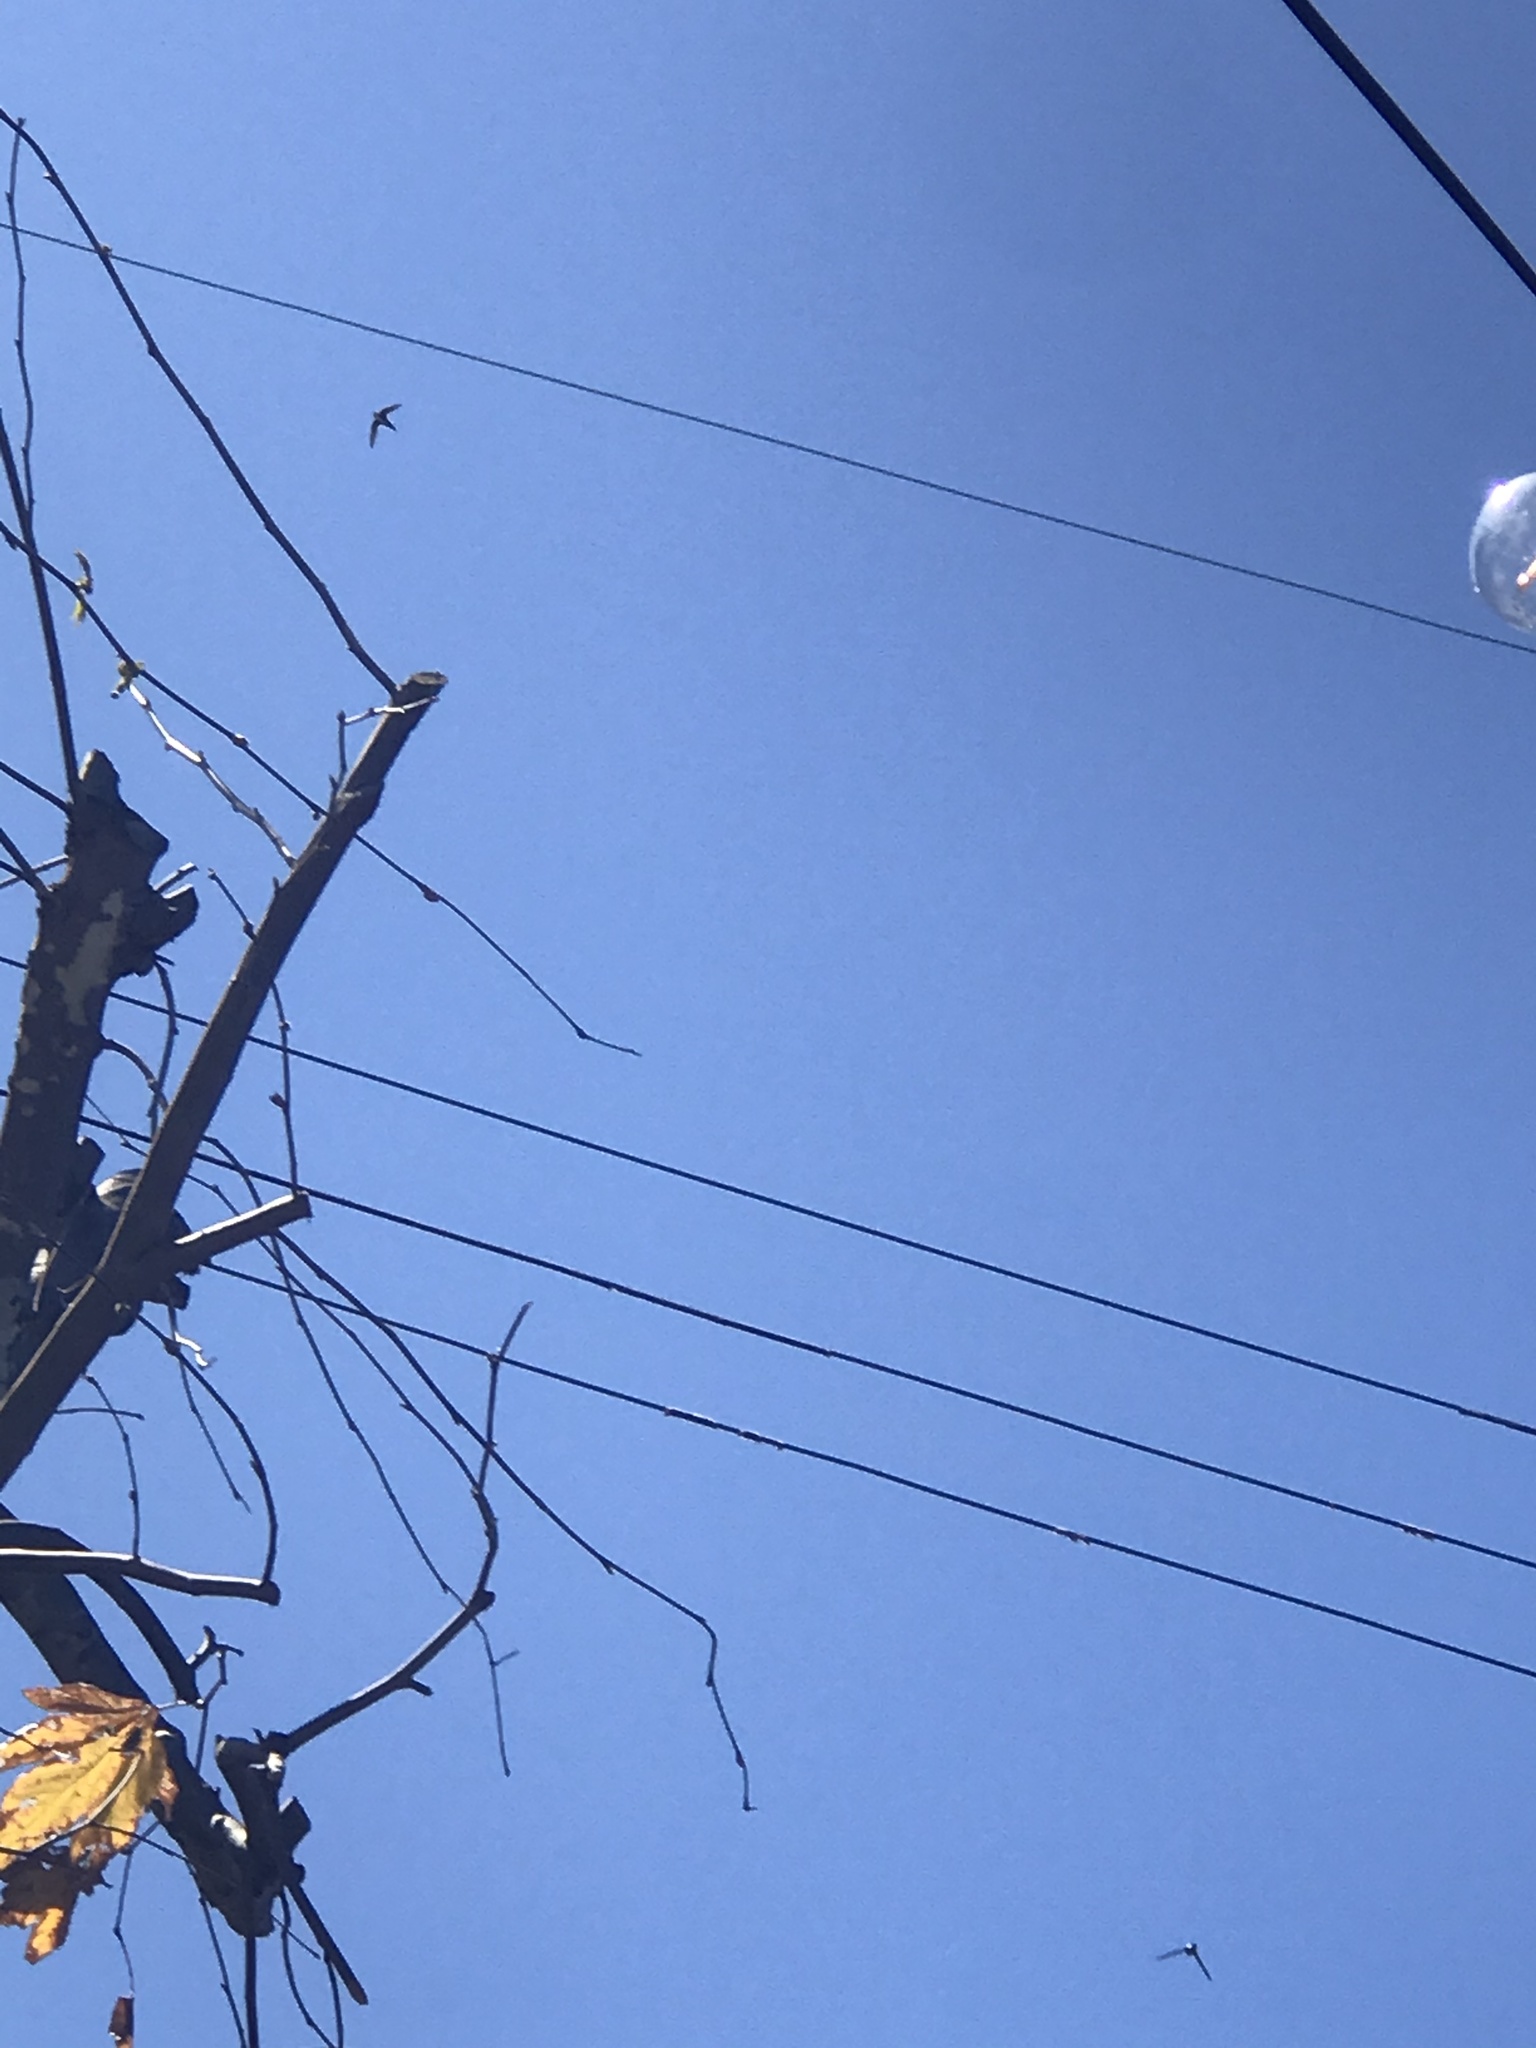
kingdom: Animalia
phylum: Chordata
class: Aves
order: Apodiformes
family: Apodidae
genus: Aeronautes
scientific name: Aeronautes saxatalis
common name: White-throated swift
